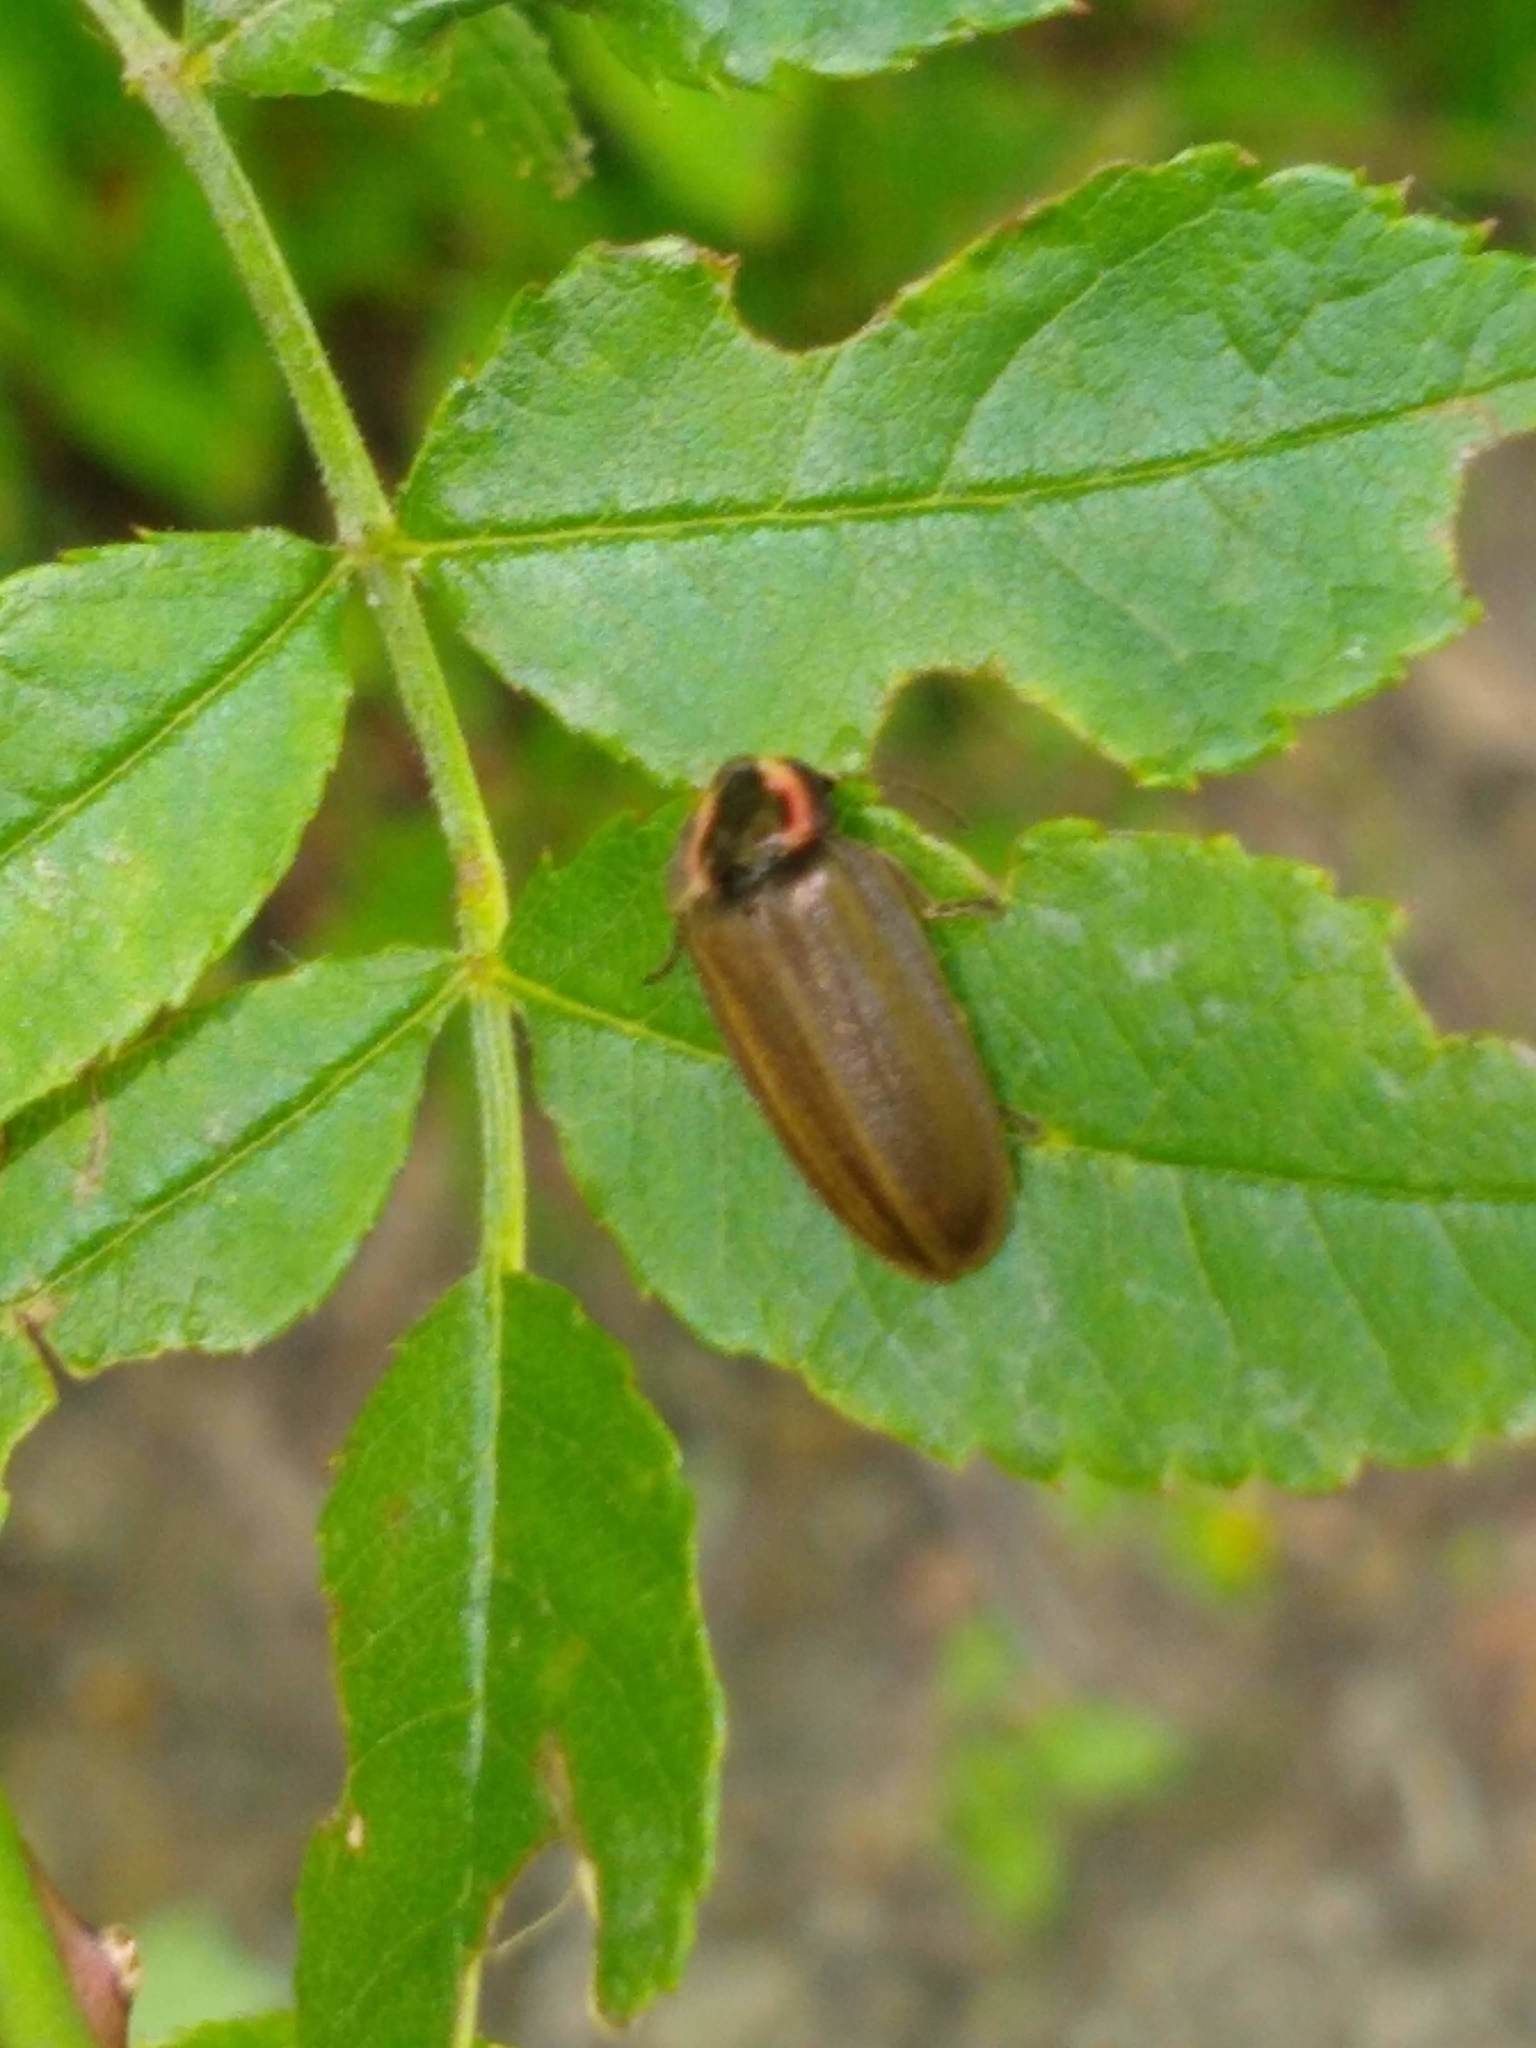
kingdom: Animalia
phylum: Arthropoda
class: Insecta
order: Coleoptera
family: Lampyridae
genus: Photinus
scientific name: Photinus corrusca
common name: Winter firefly
